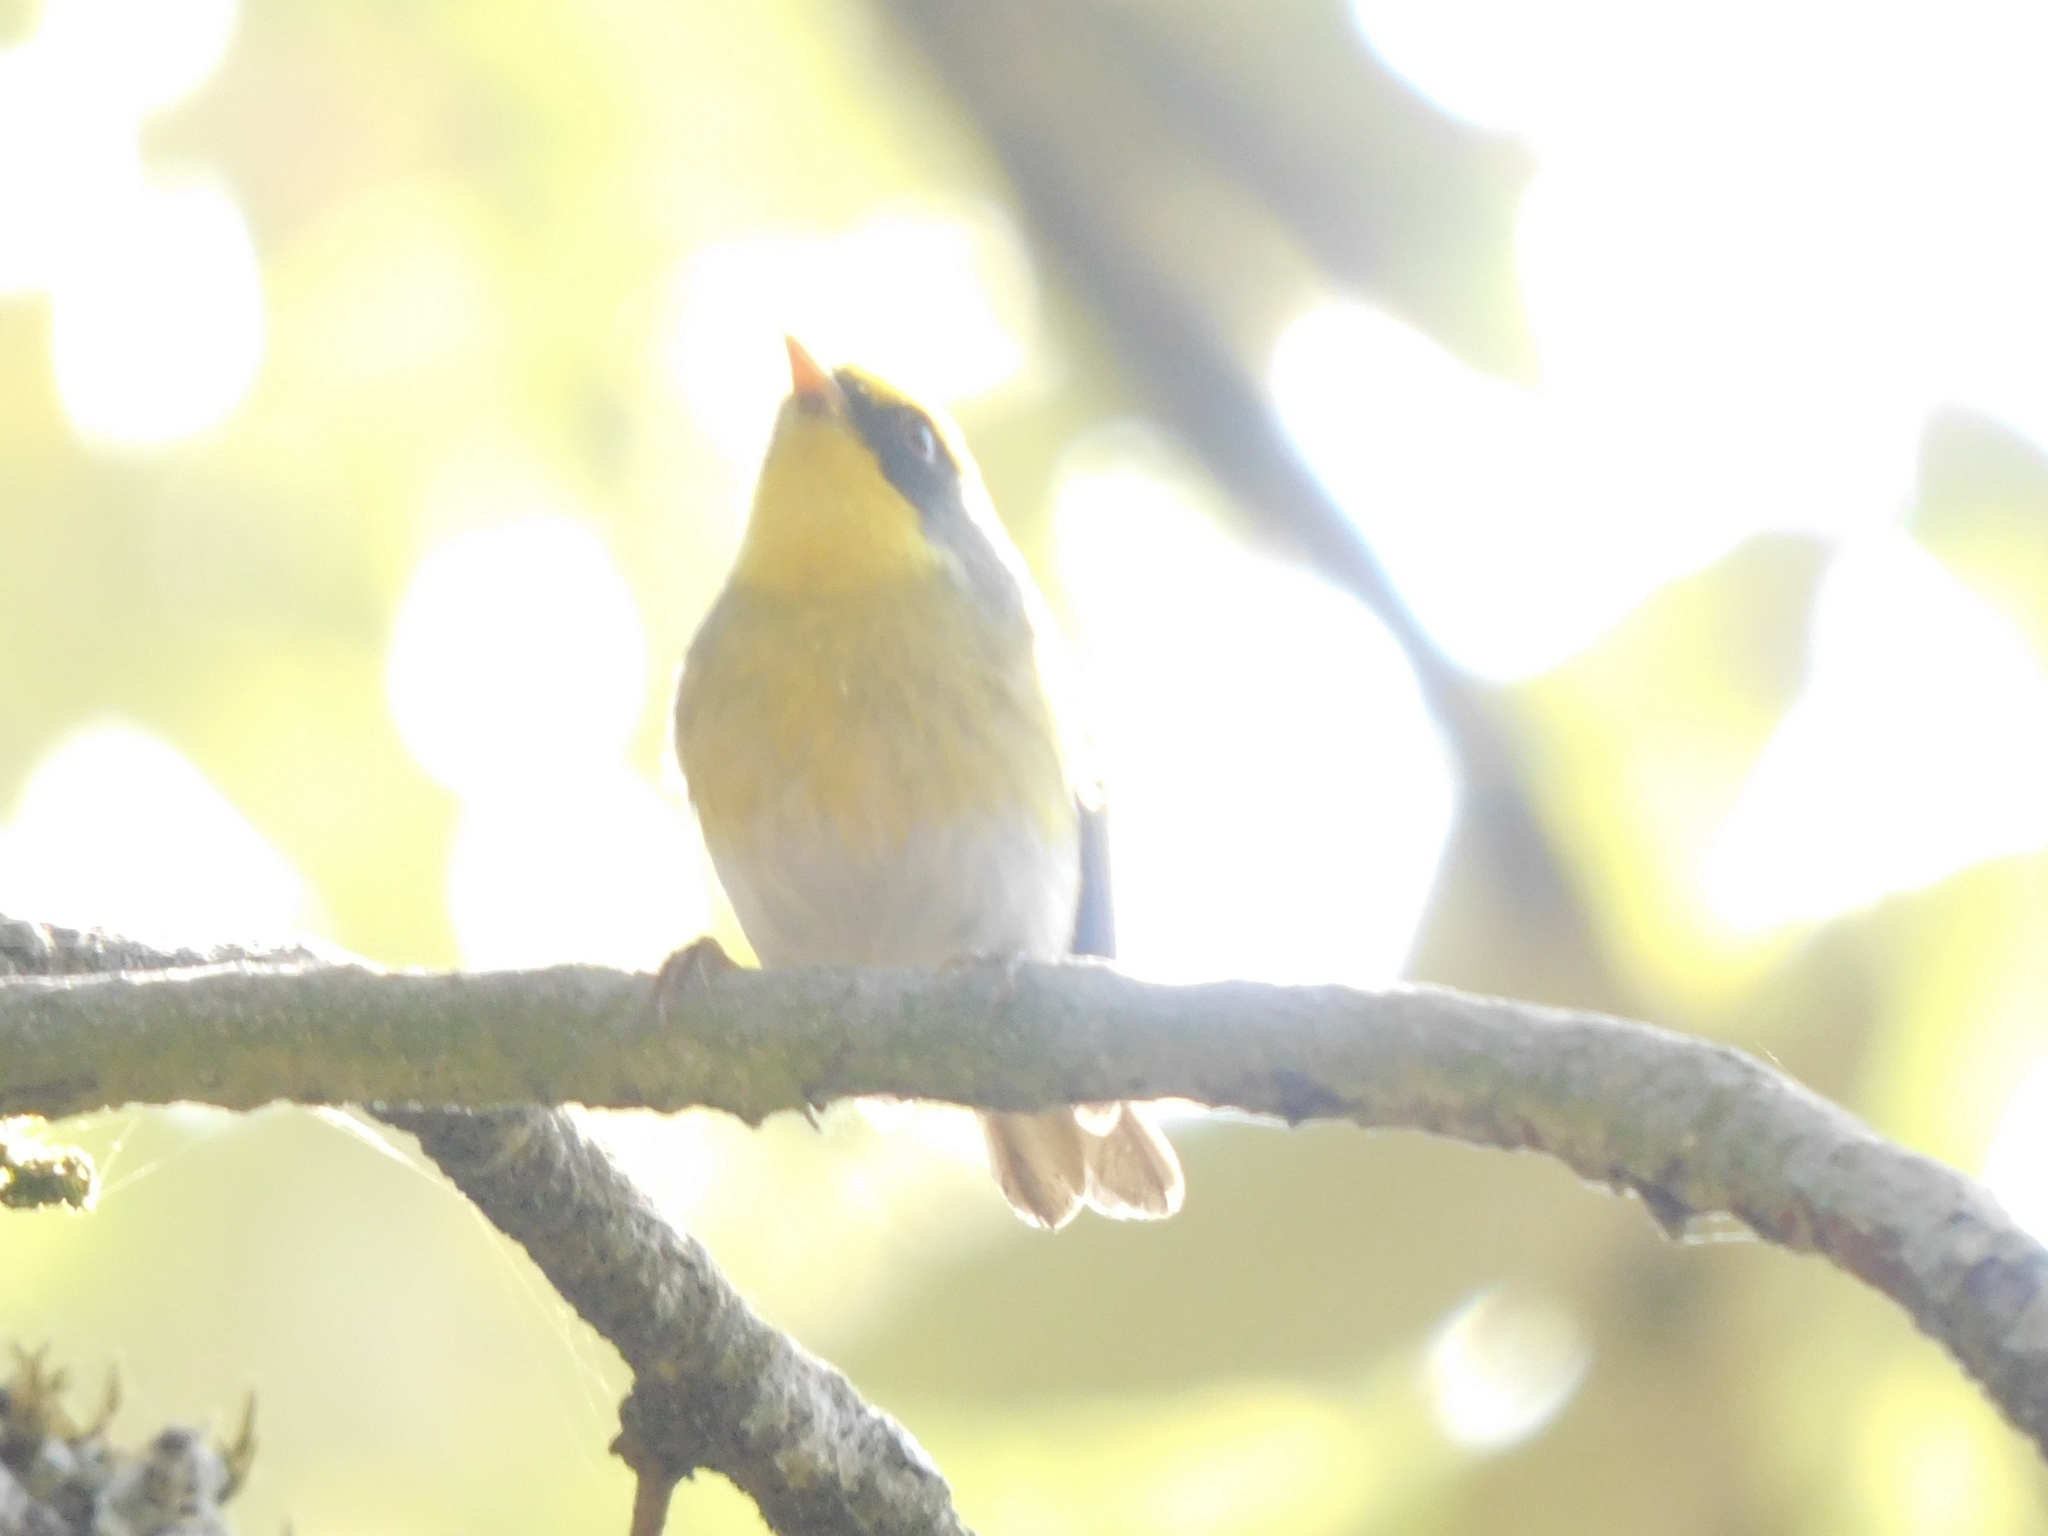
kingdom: Animalia
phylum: Chordata
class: Aves
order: Passeriformes
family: Cettiidae
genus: Abroscopus
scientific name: Abroscopus schisticeps
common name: Black-faced warbler
